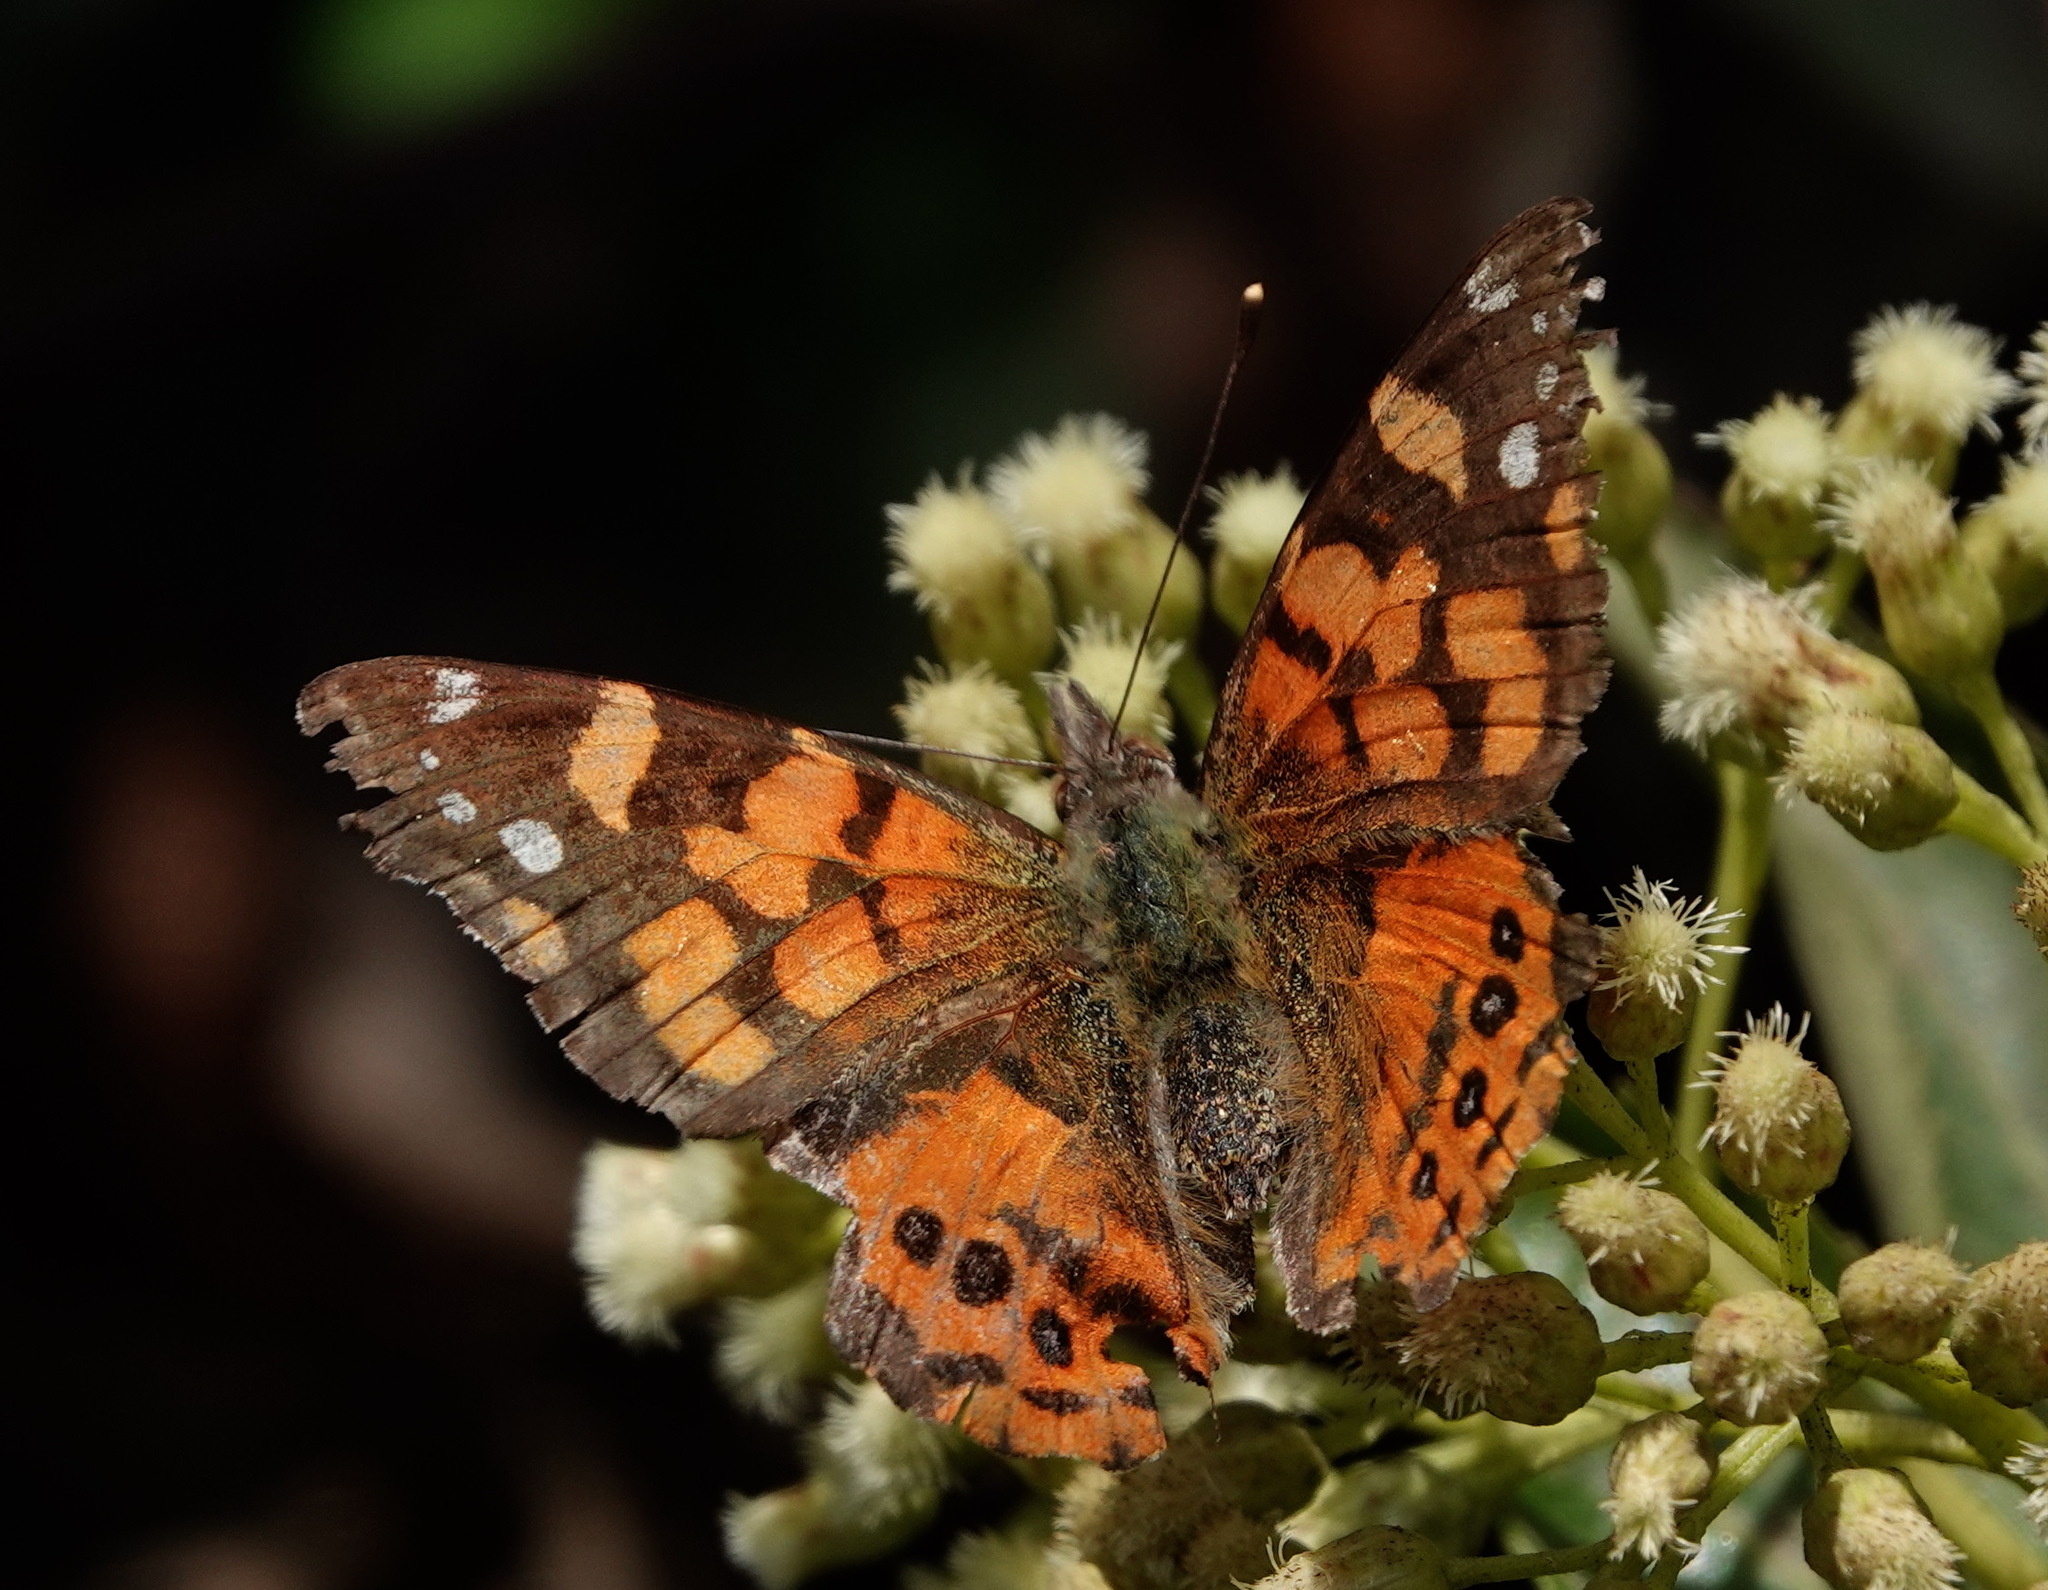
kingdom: Animalia
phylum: Arthropoda
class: Insecta
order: Lepidoptera
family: Nymphalidae
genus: Vanessa
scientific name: Vanessa carye
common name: Subtropical lady
